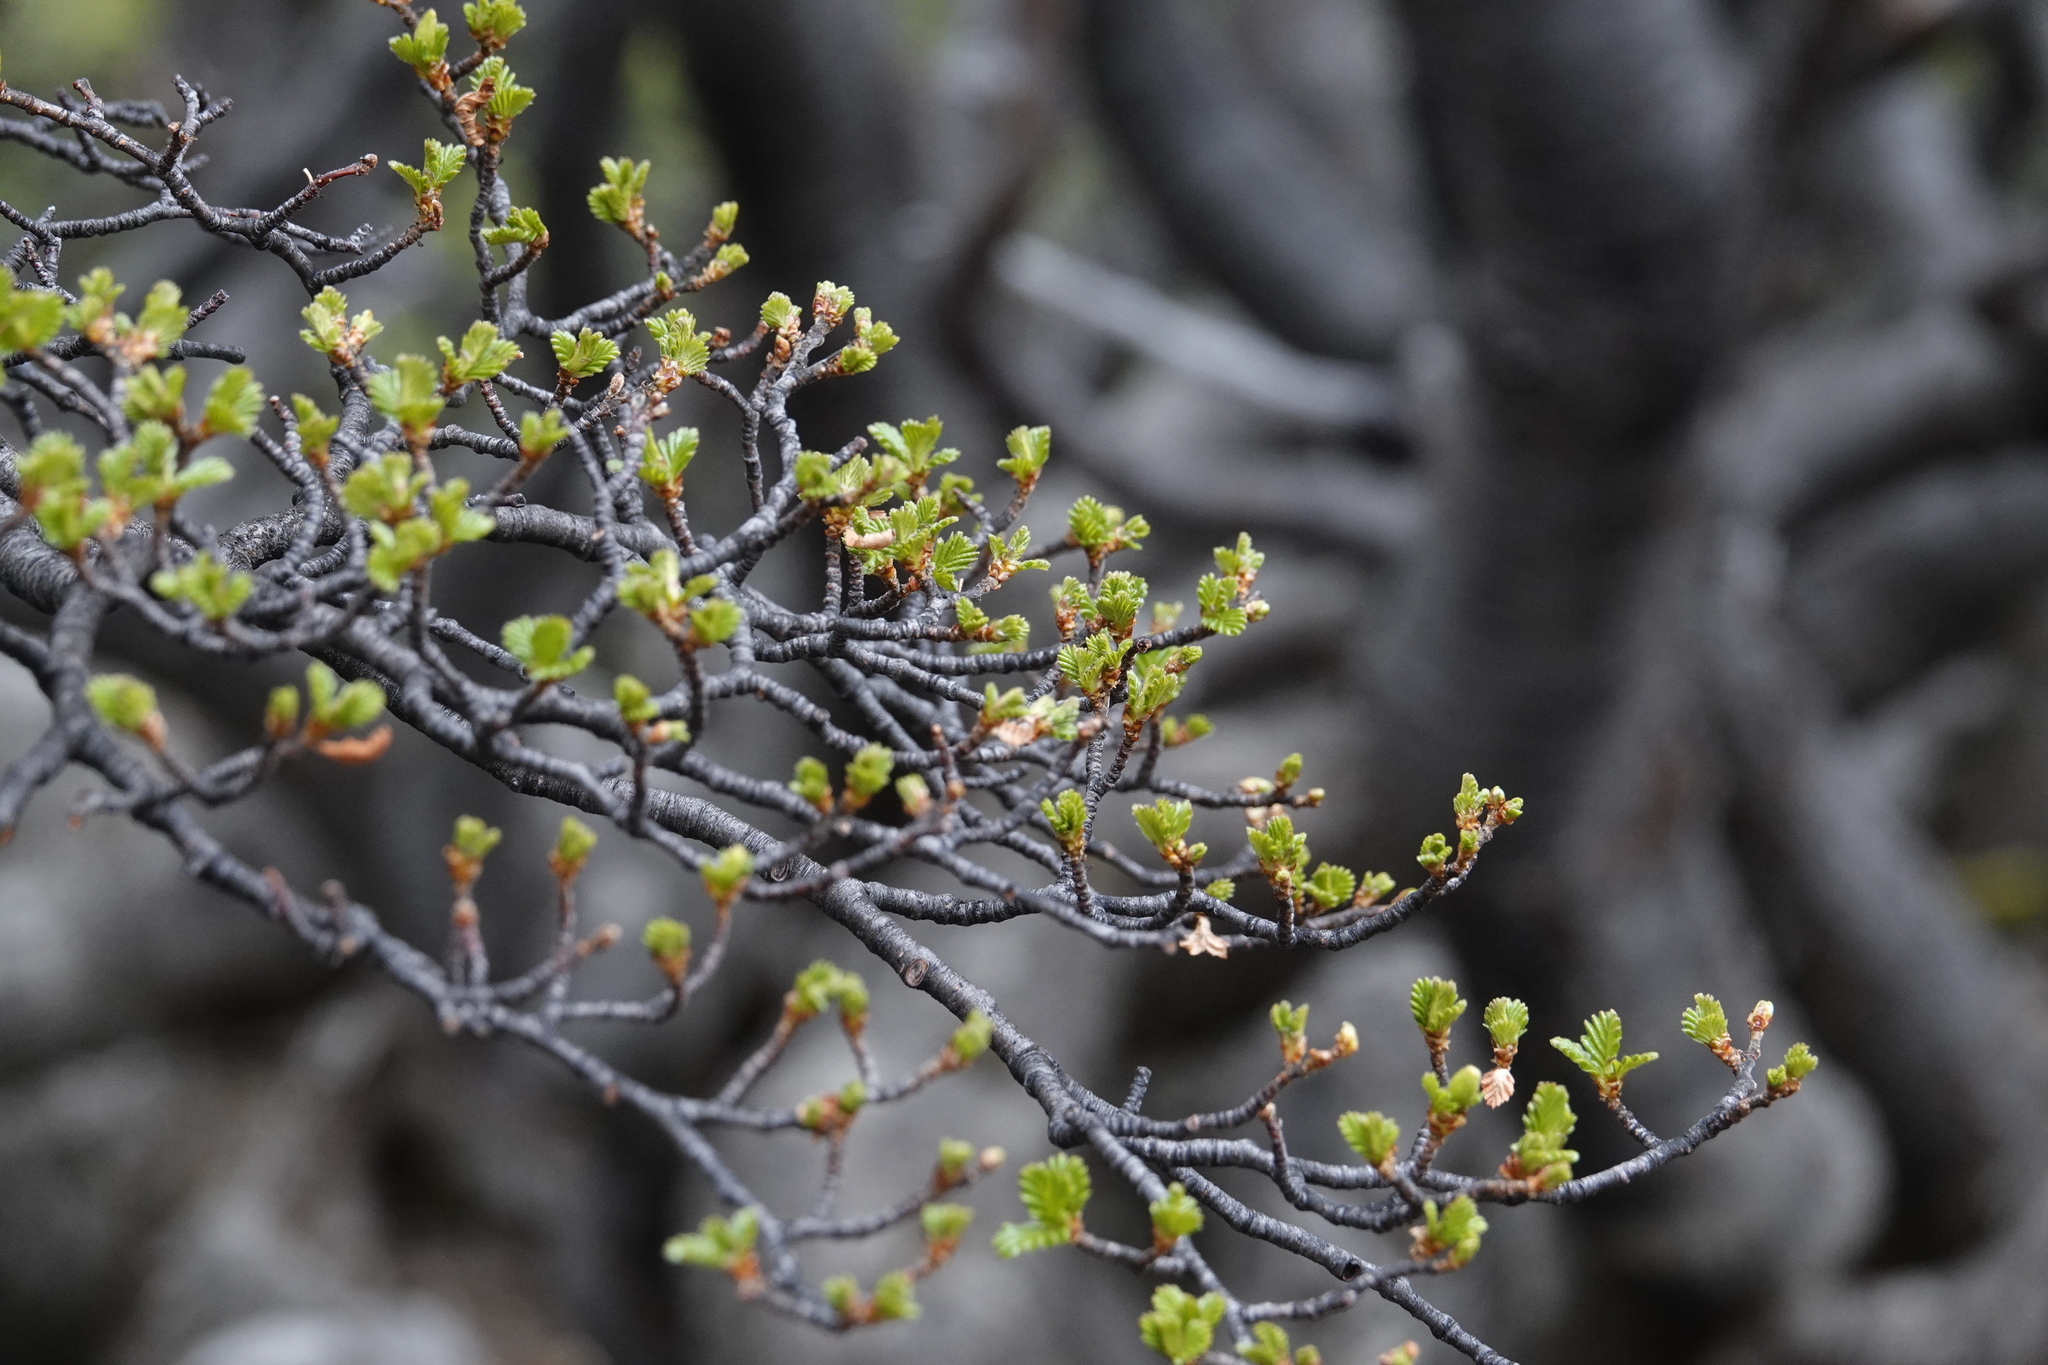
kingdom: Plantae
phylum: Tracheophyta
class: Magnoliopsida
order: Fagales
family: Nothofagaceae
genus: Nothofagus
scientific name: Nothofagus pumilio
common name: Lenga beech
